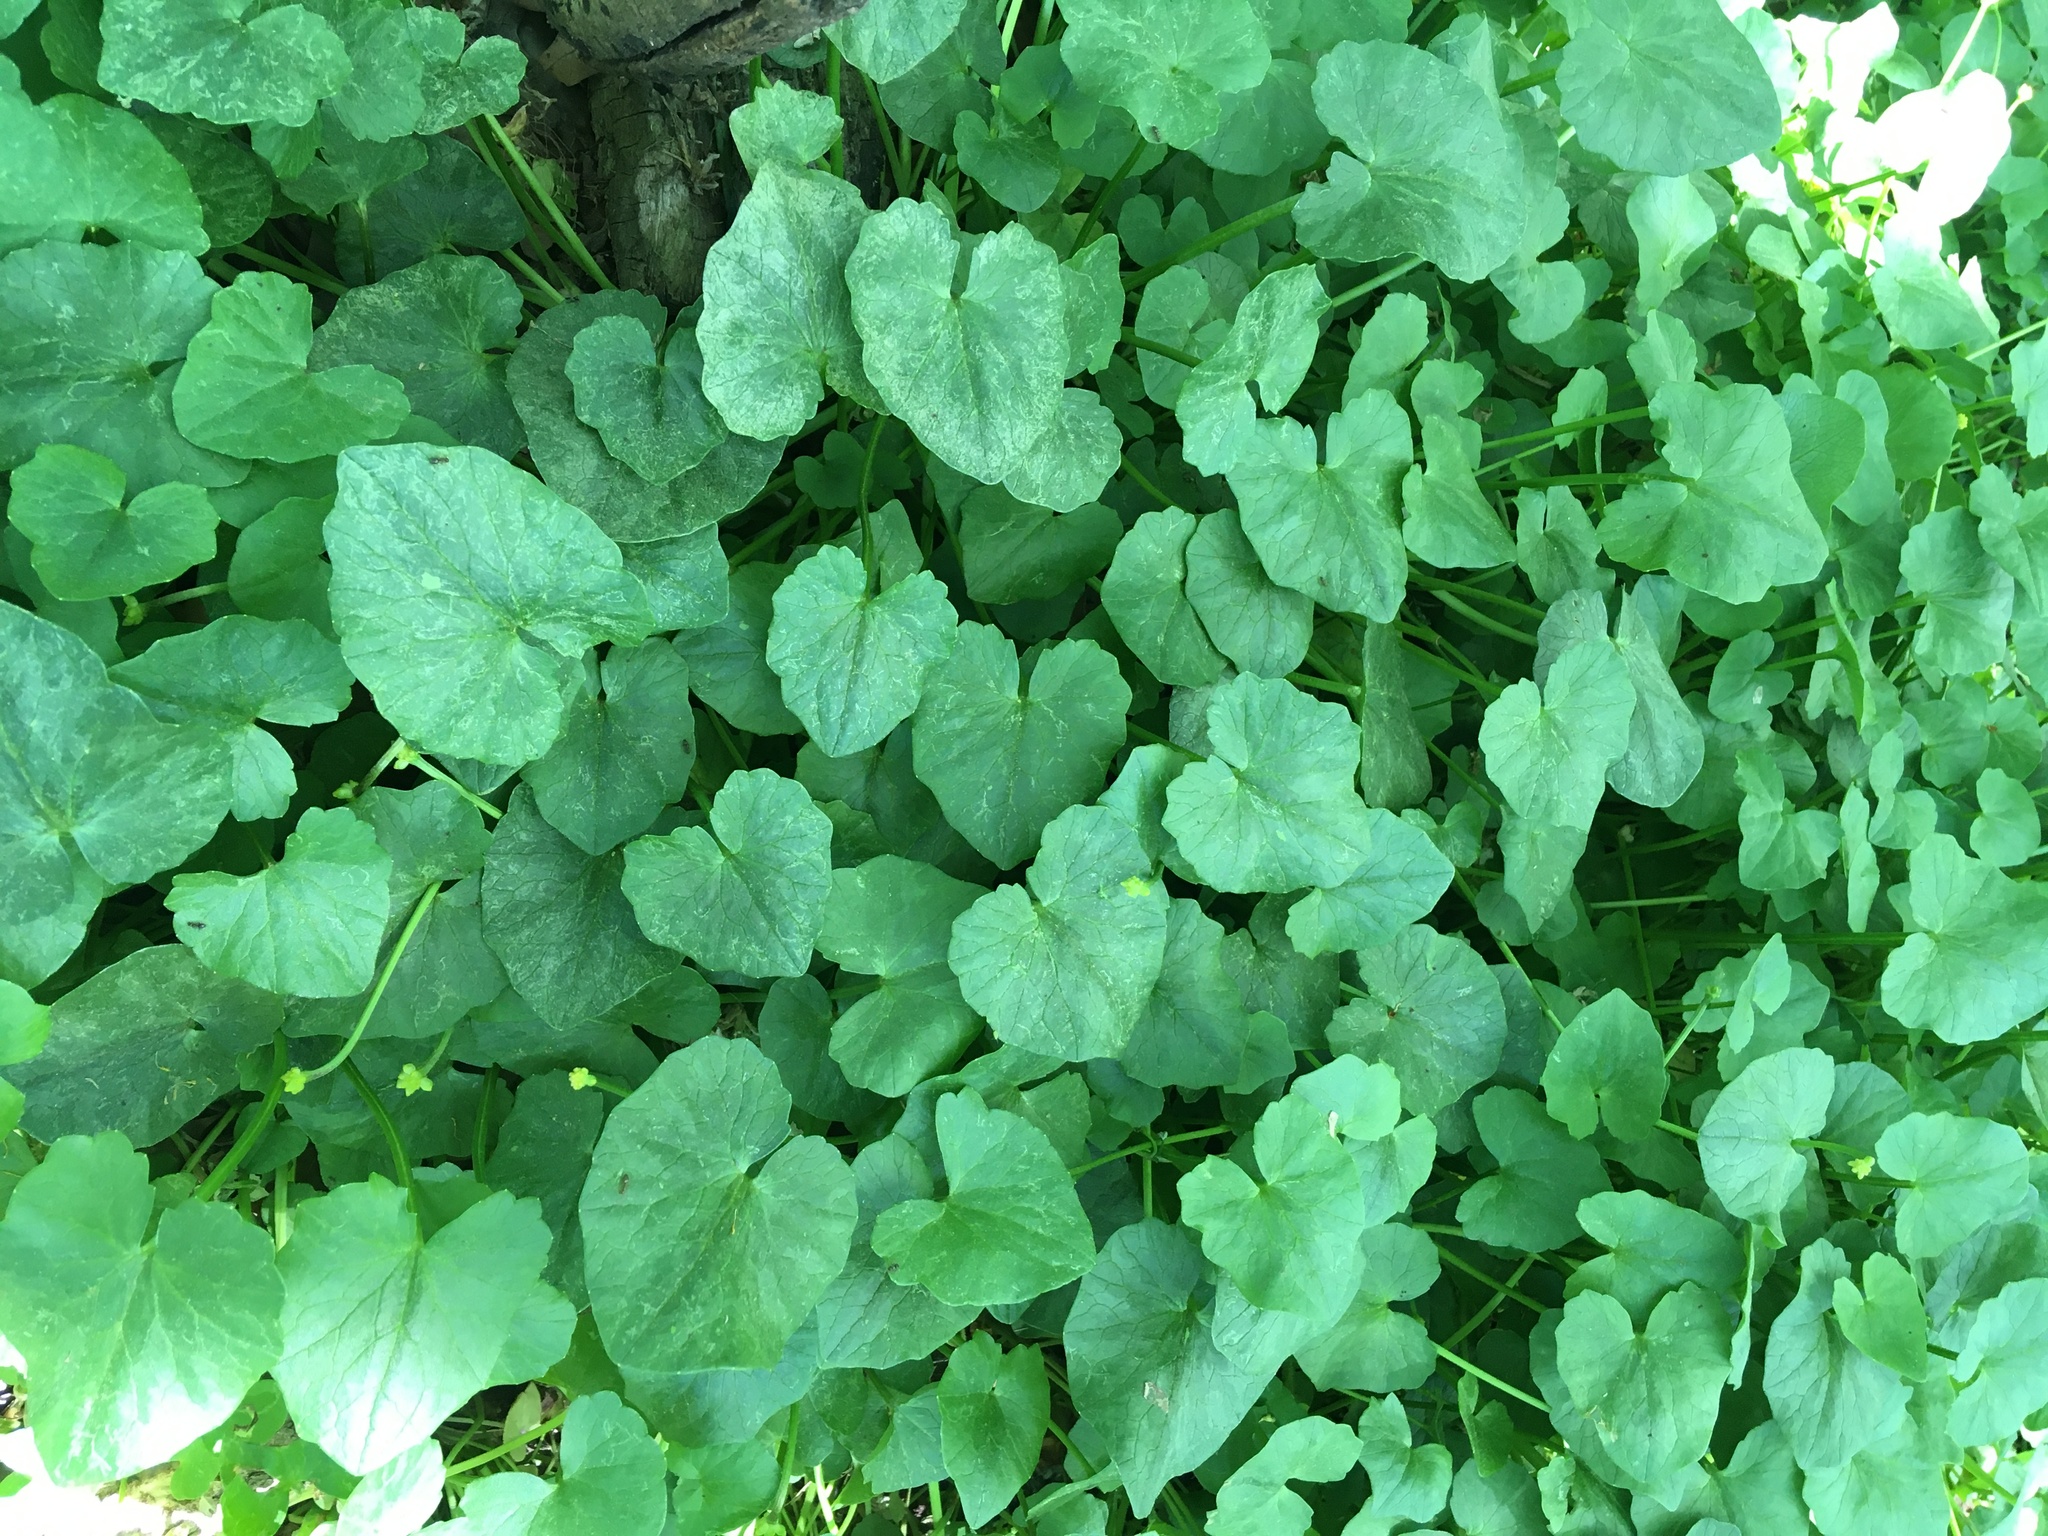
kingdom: Plantae
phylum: Tracheophyta
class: Magnoliopsida
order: Ranunculales
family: Ranunculaceae
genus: Ficaria
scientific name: Ficaria verna
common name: Lesser celandine
